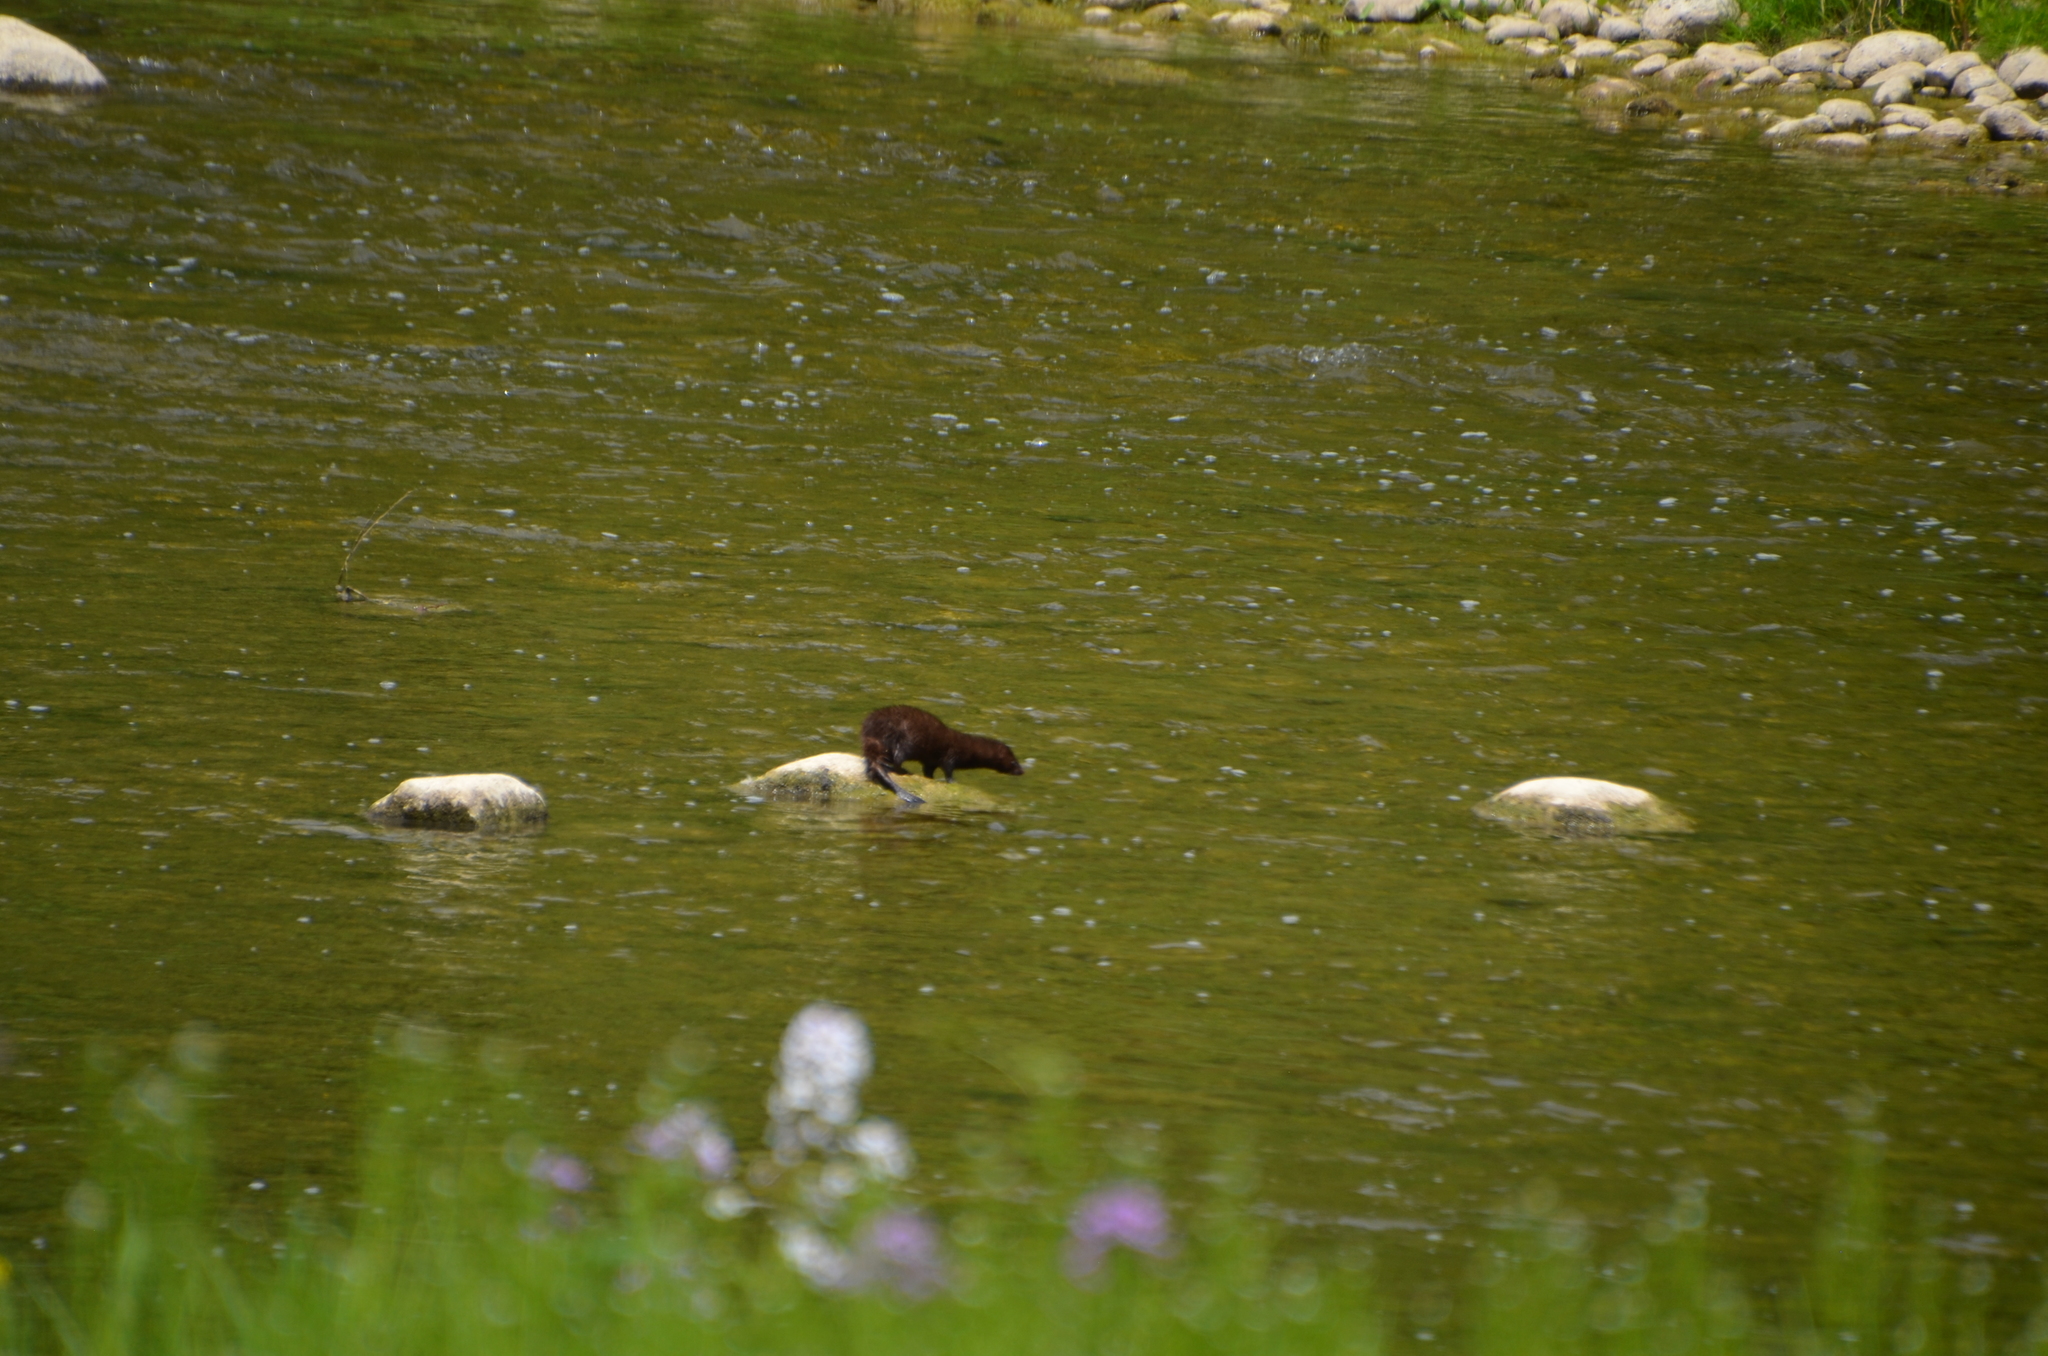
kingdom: Animalia
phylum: Chordata
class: Mammalia
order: Carnivora
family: Mustelidae
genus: Mustela
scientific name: Mustela
